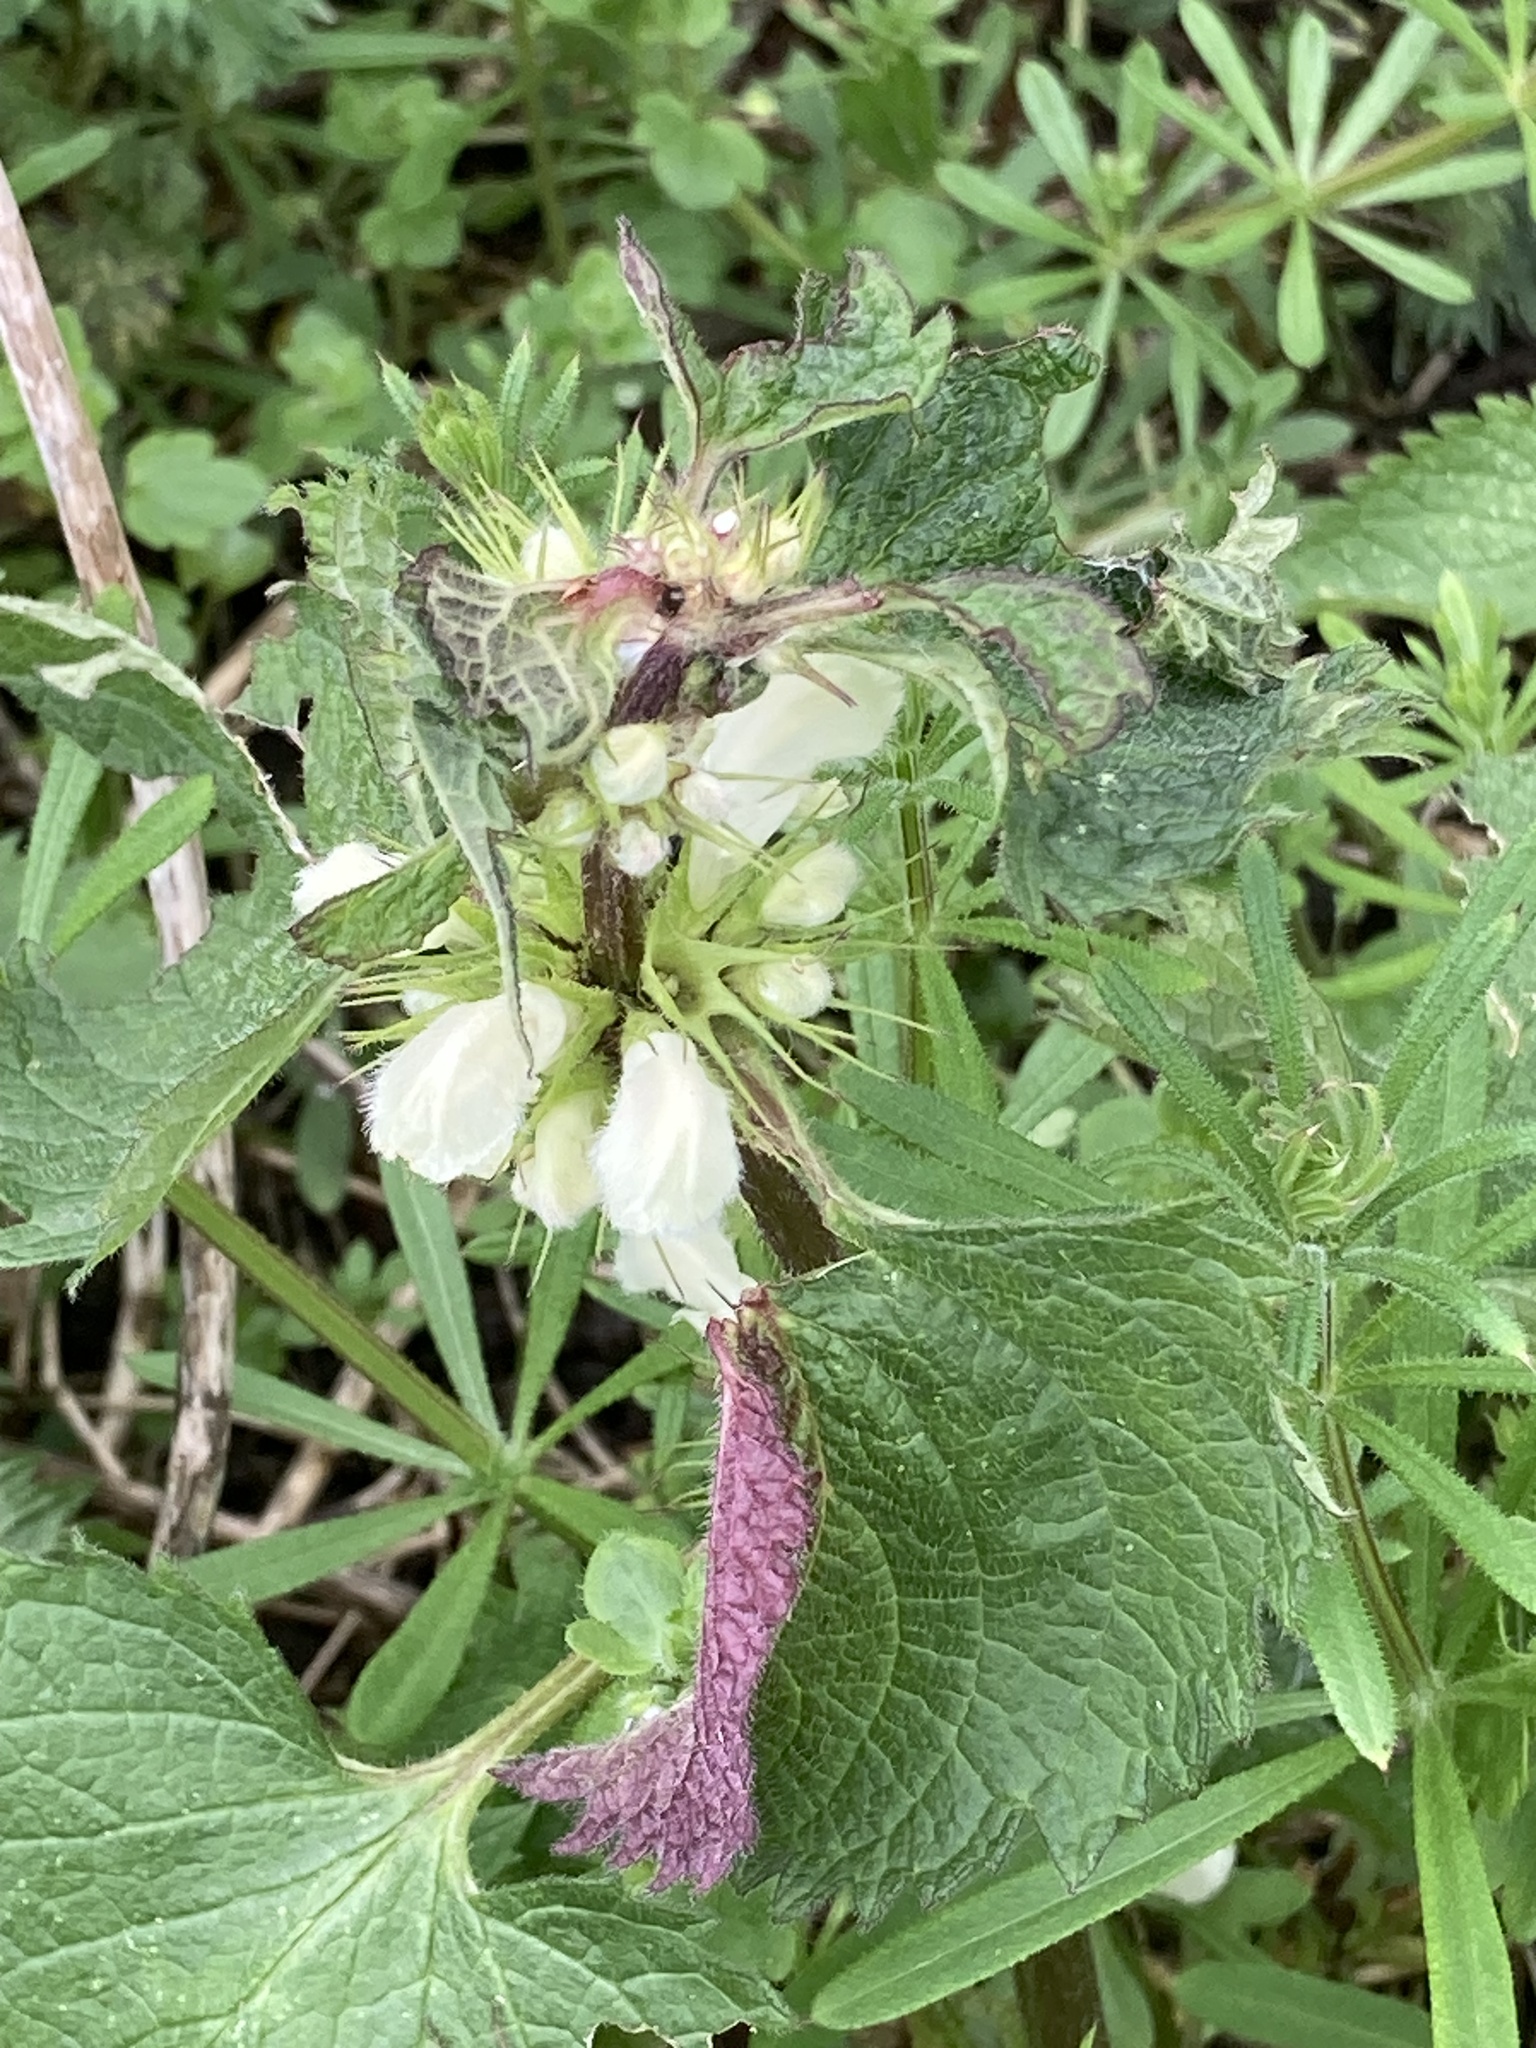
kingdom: Plantae
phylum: Tracheophyta
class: Magnoliopsida
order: Lamiales
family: Lamiaceae
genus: Lamium
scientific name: Lamium album
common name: White dead-nettle
